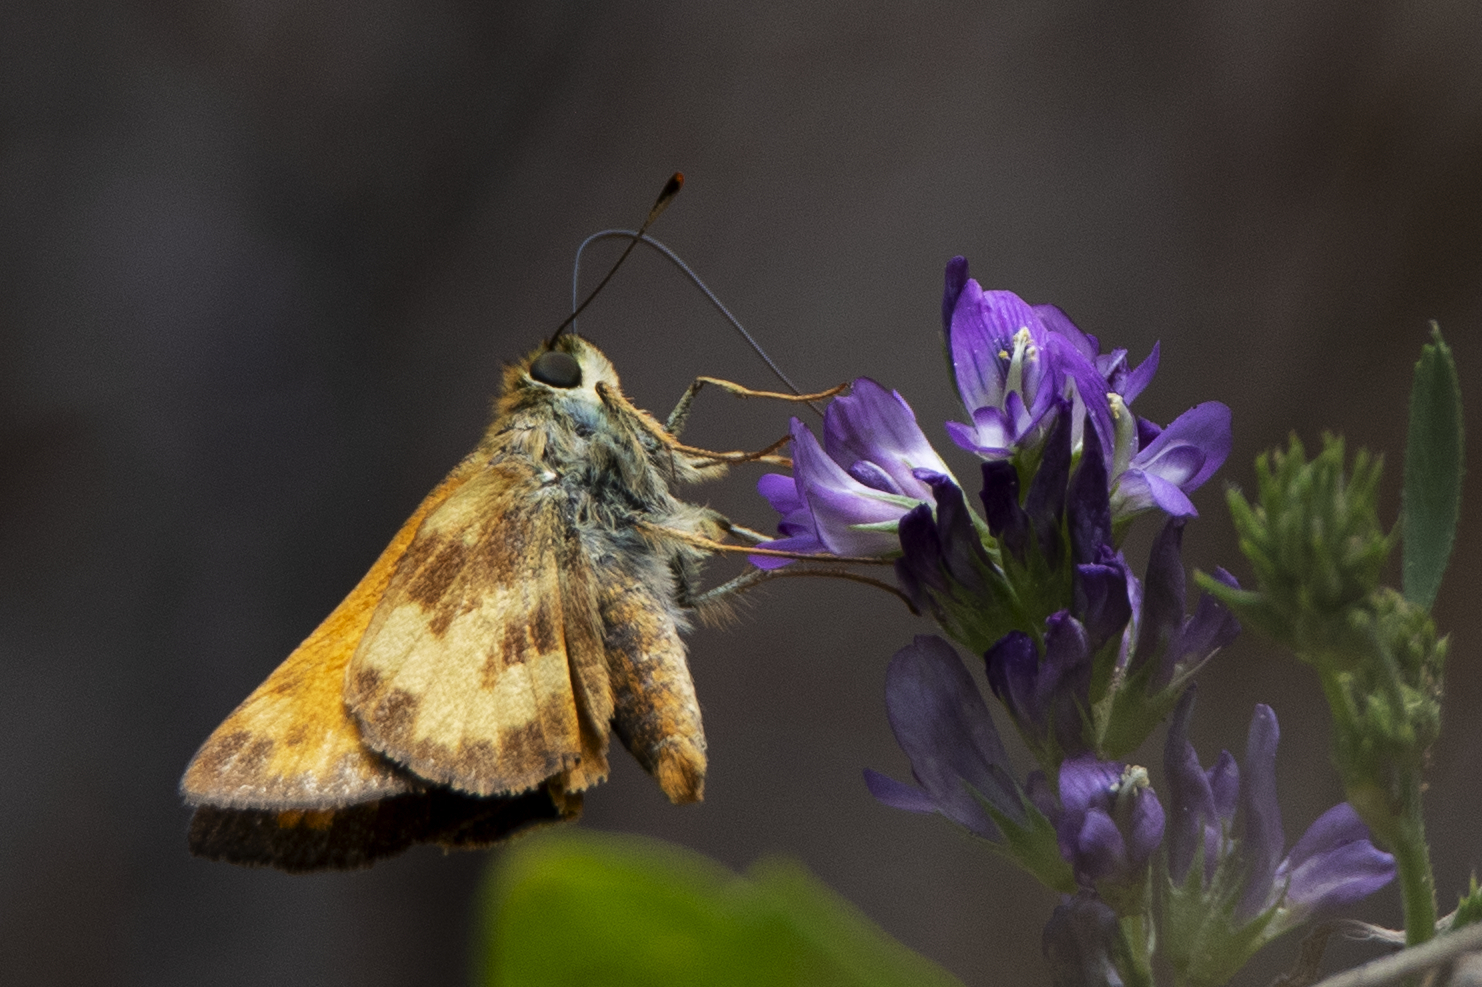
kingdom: Animalia
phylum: Arthropoda
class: Insecta
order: Lepidoptera
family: Hesperiidae
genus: Lon
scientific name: Lon taxiles
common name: Taxiles skipper
